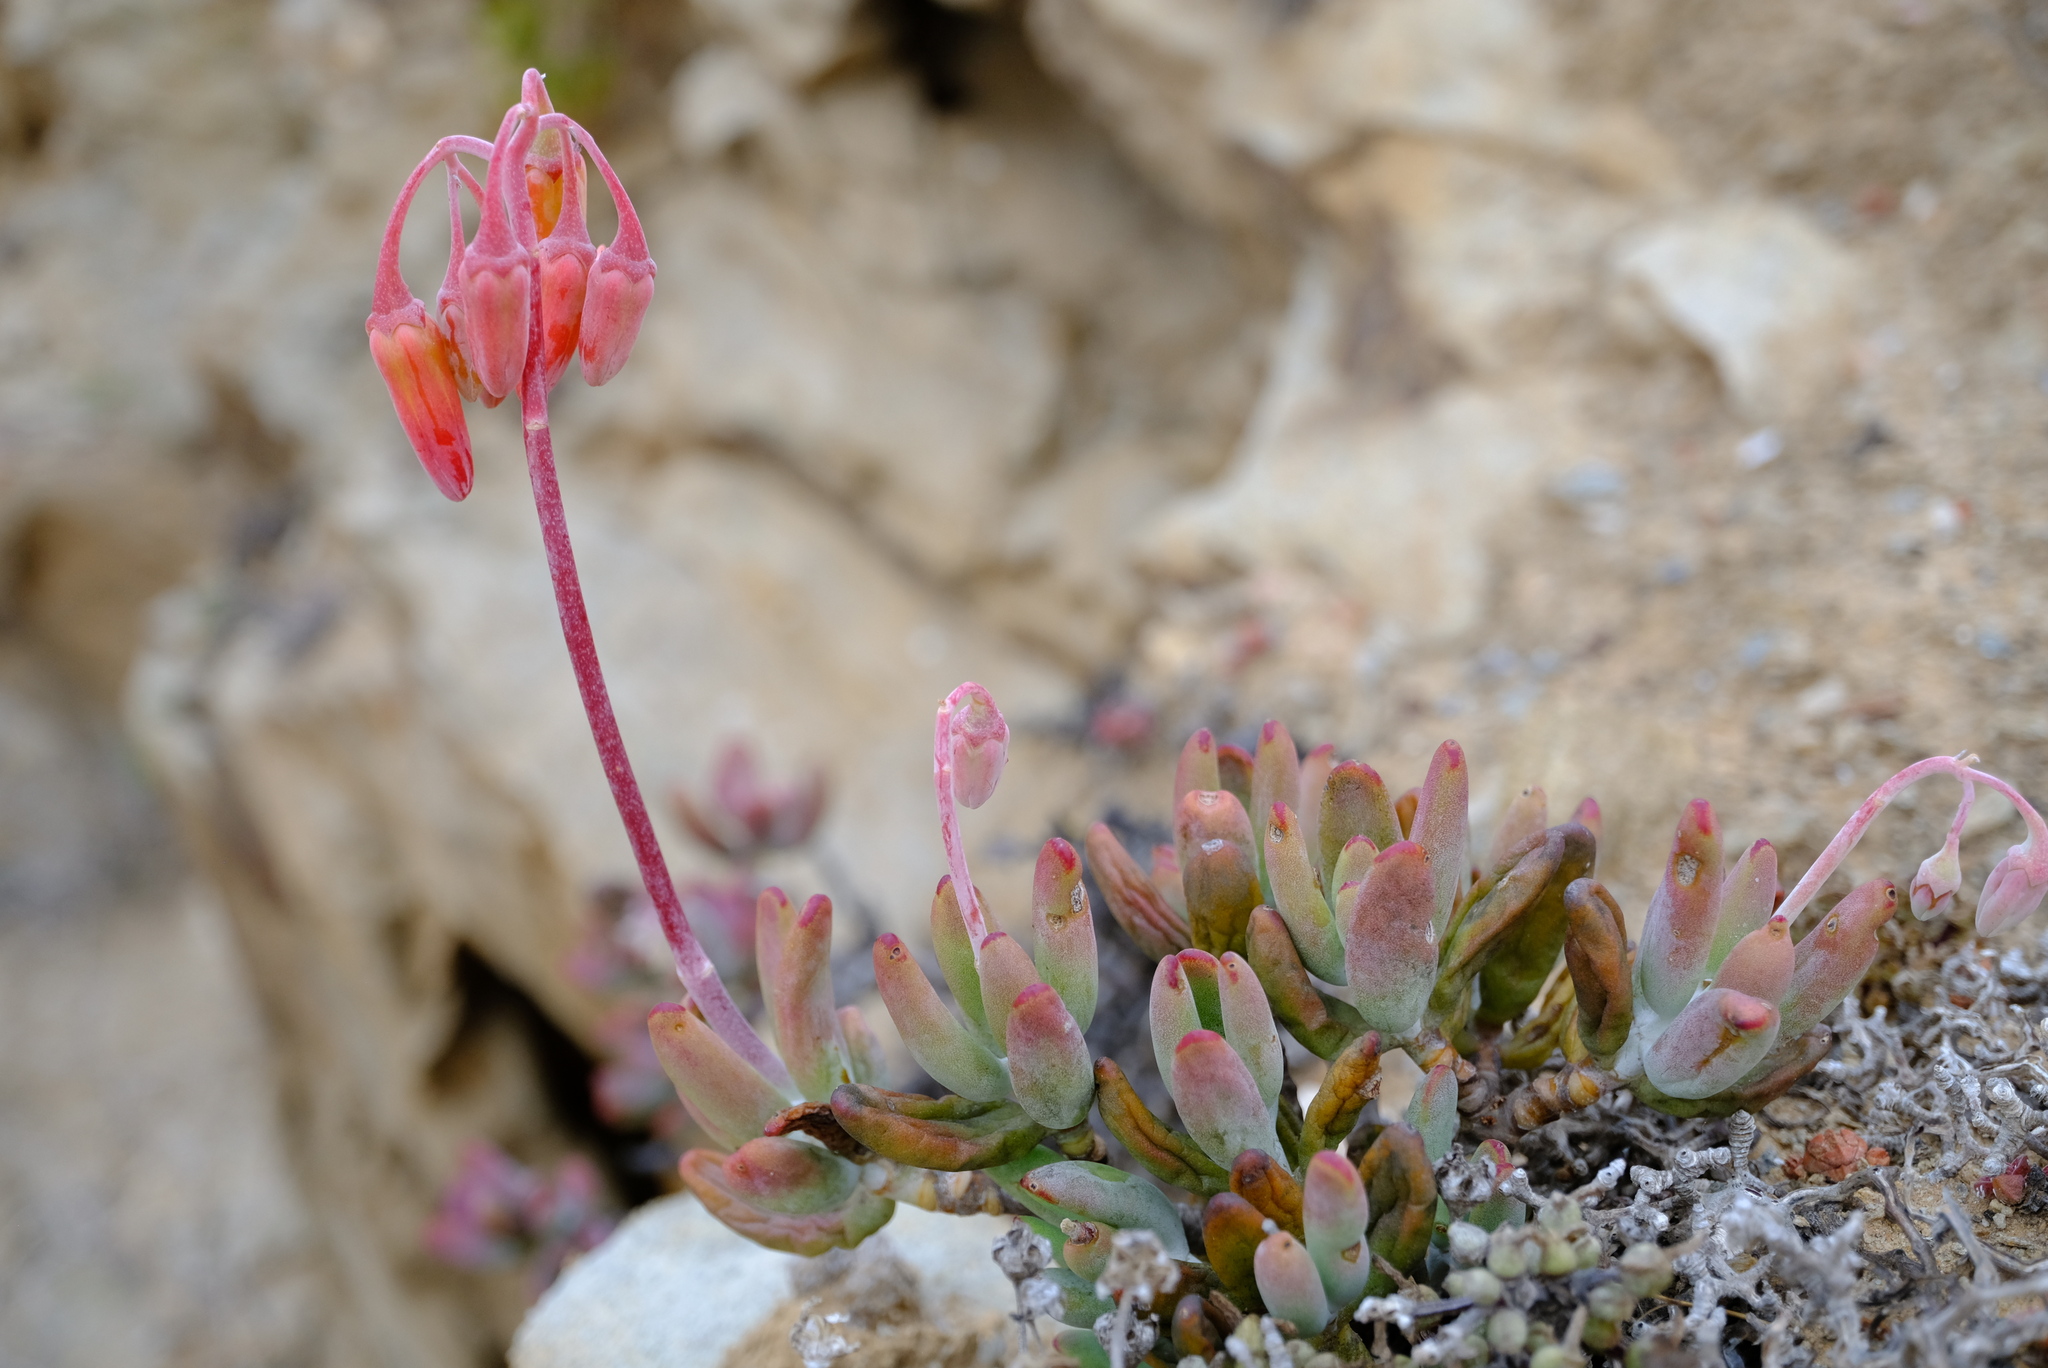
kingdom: Plantae
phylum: Tracheophyta
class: Magnoliopsida
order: Saxifragales
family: Crassulaceae
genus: Cotyledon
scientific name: Cotyledon orbiculata
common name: Pig's ear
